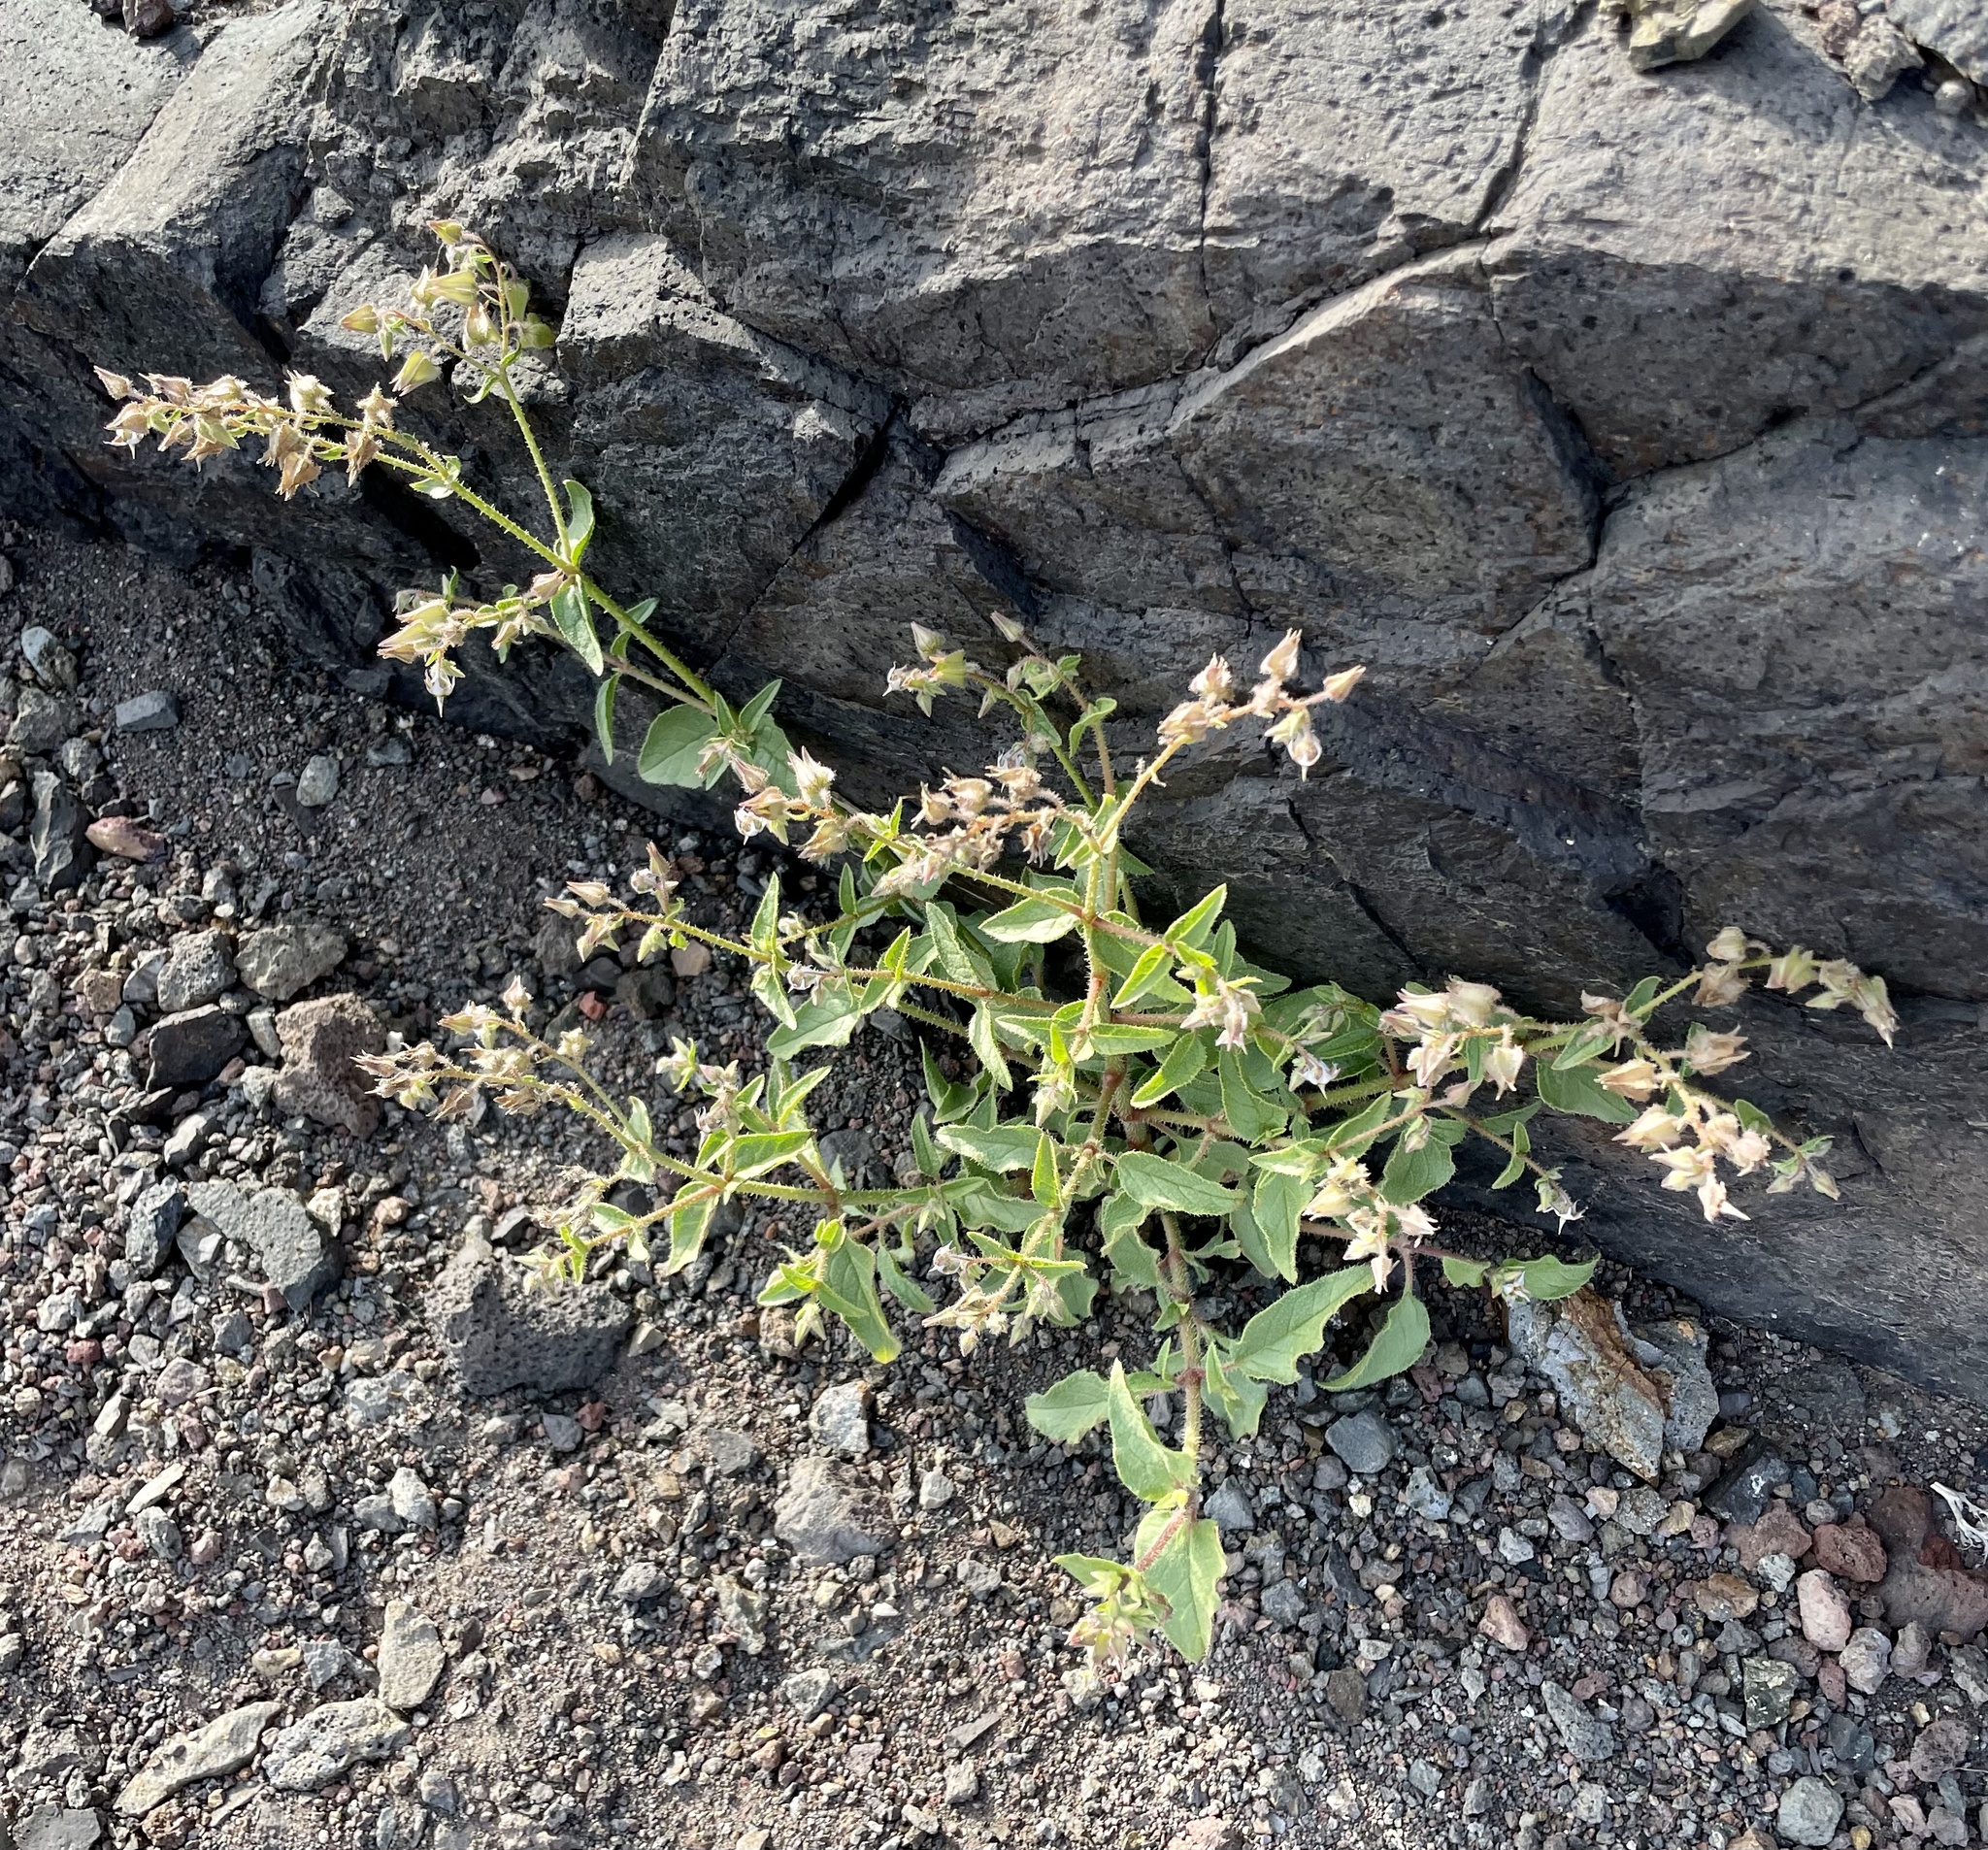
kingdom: Plantae
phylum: Tracheophyta
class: Magnoliopsida
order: Boraginales
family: Boraginaceae
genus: Trichodesma
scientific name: Trichodesma africanum
